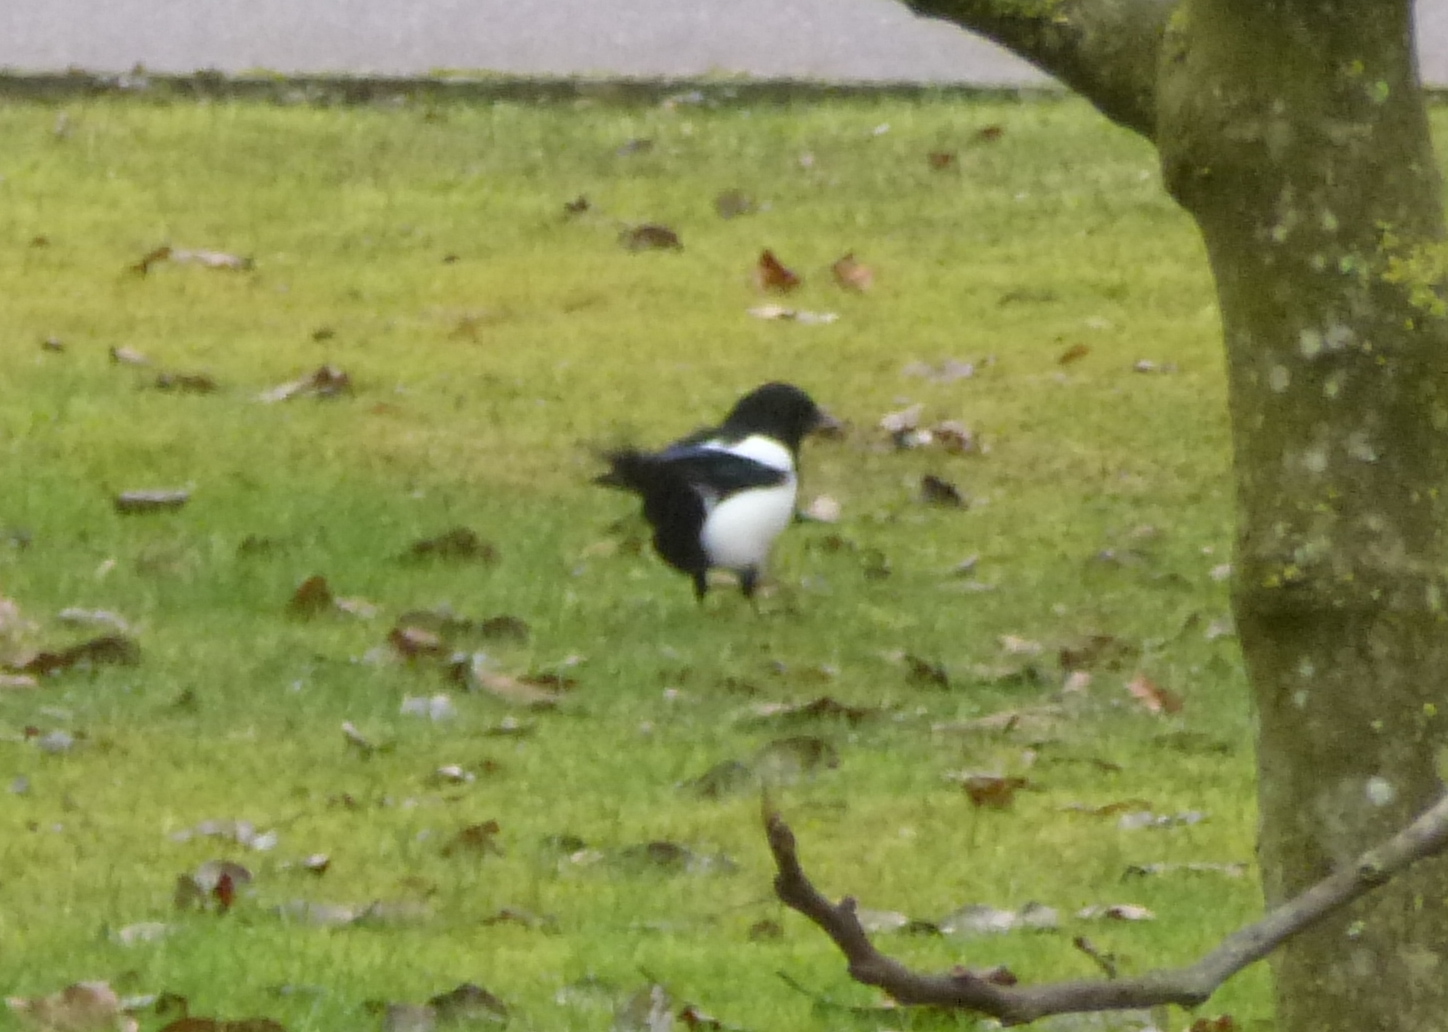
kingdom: Animalia
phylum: Chordata
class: Aves
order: Passeriformes
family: Corvidae
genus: Pica
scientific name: Pica pica
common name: Eurasian magpie
